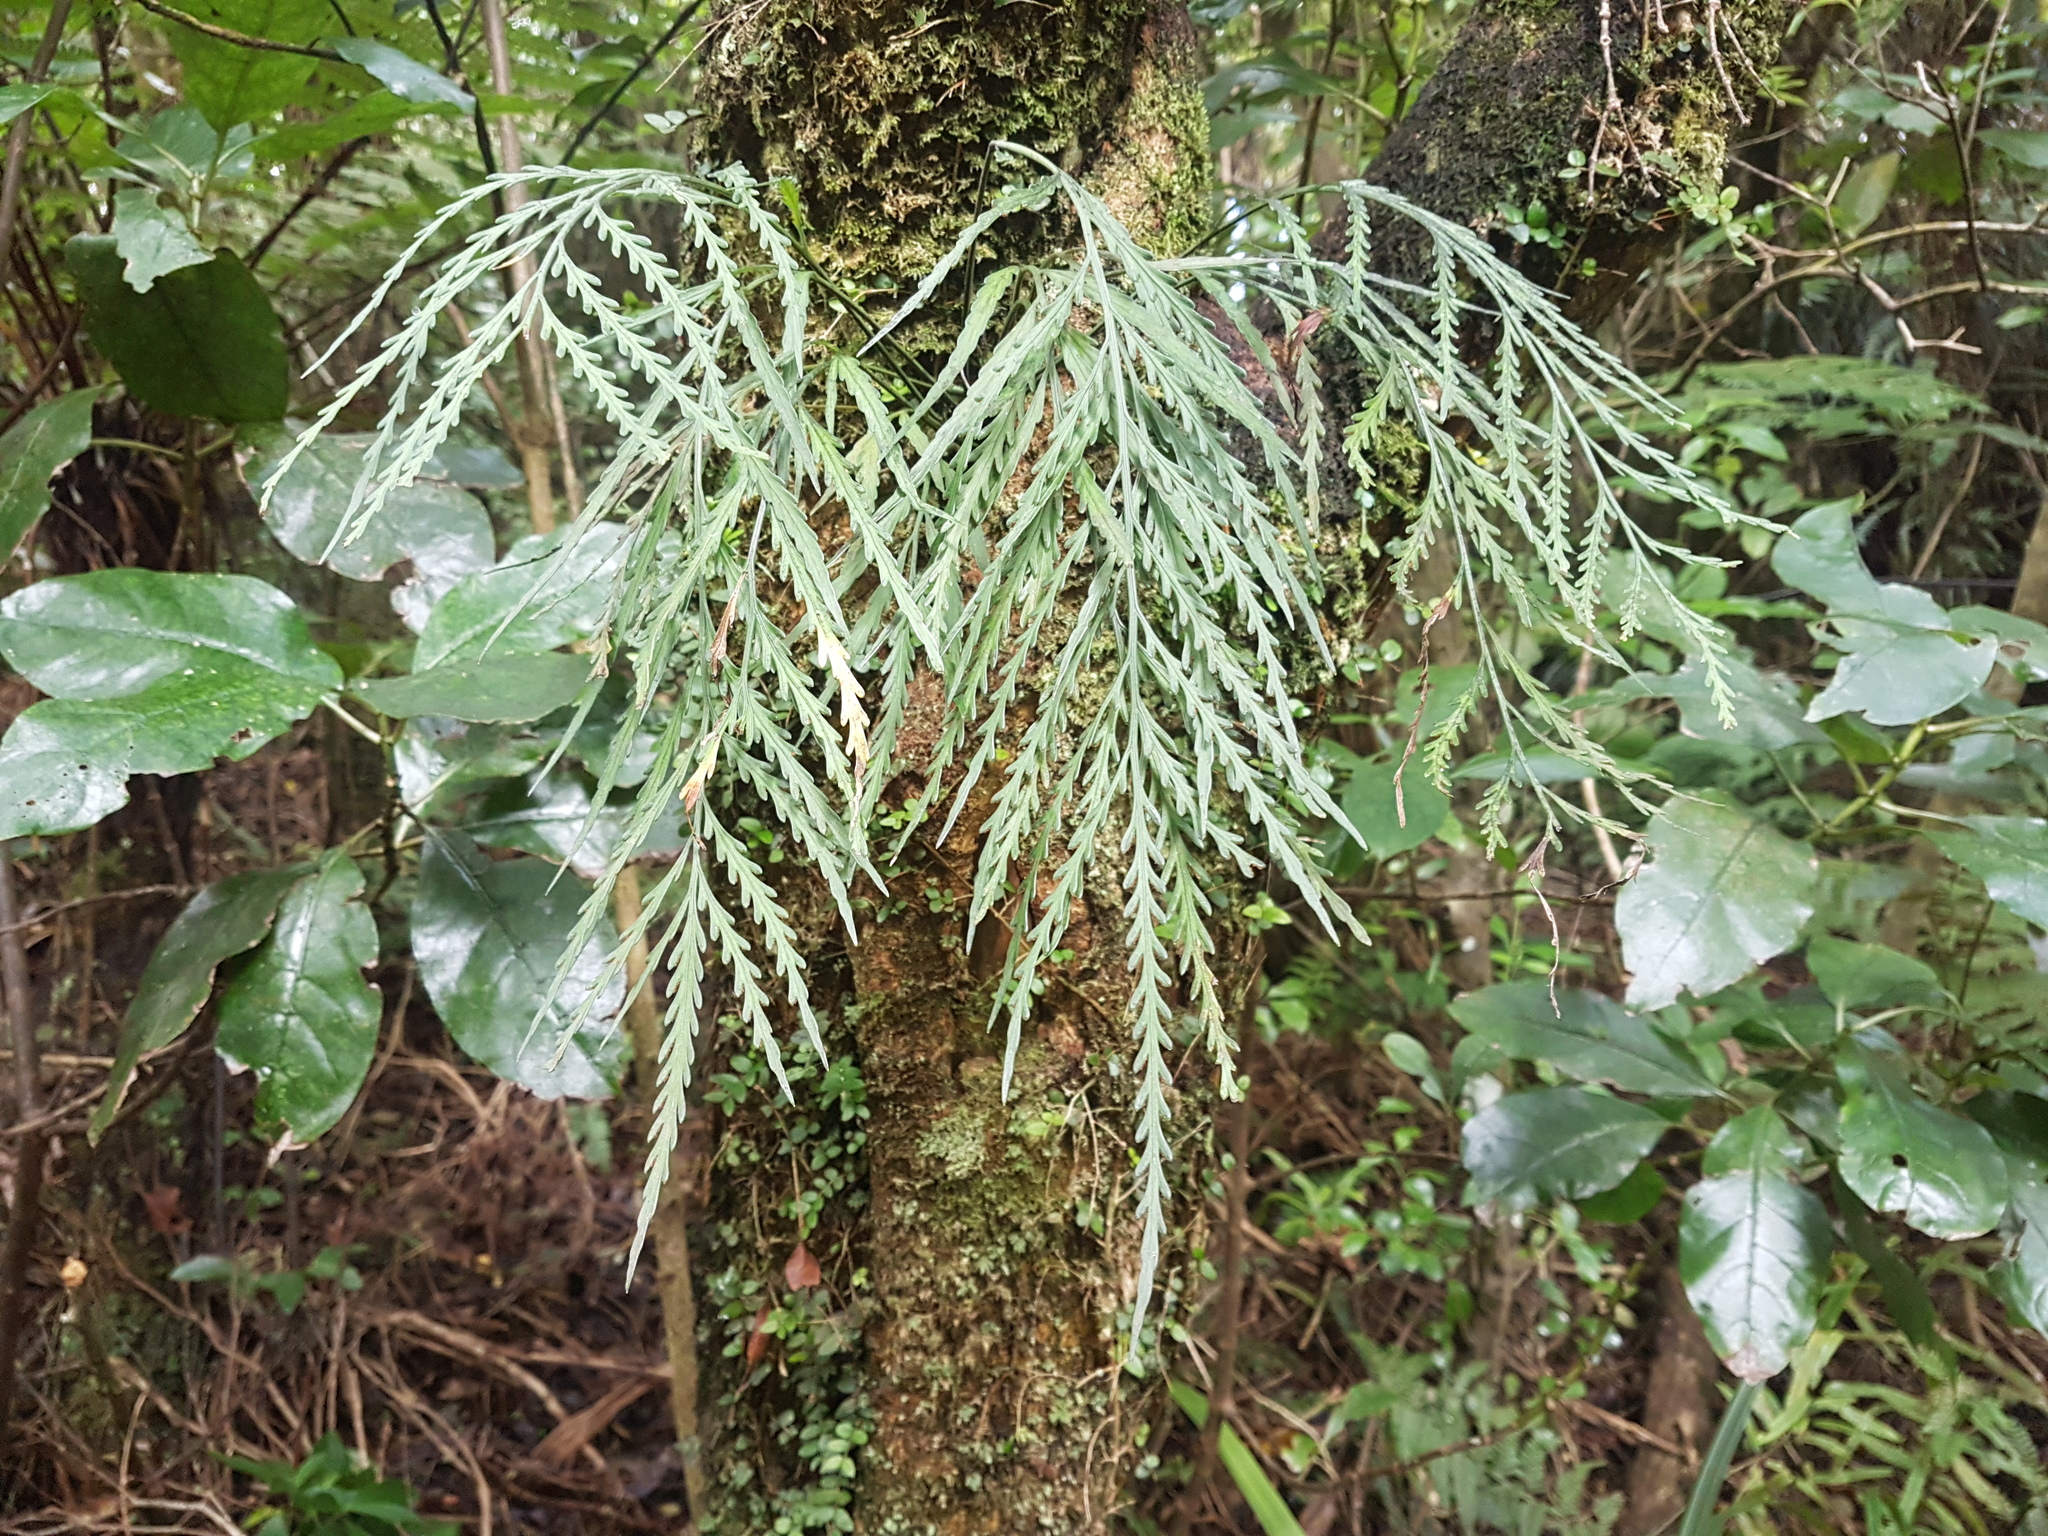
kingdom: Plantae
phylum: Tracheophyta
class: Polypodiopsida
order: Polypodiales
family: Aspleniaceae
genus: Asplenium
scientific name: Asplenium flaccidum
